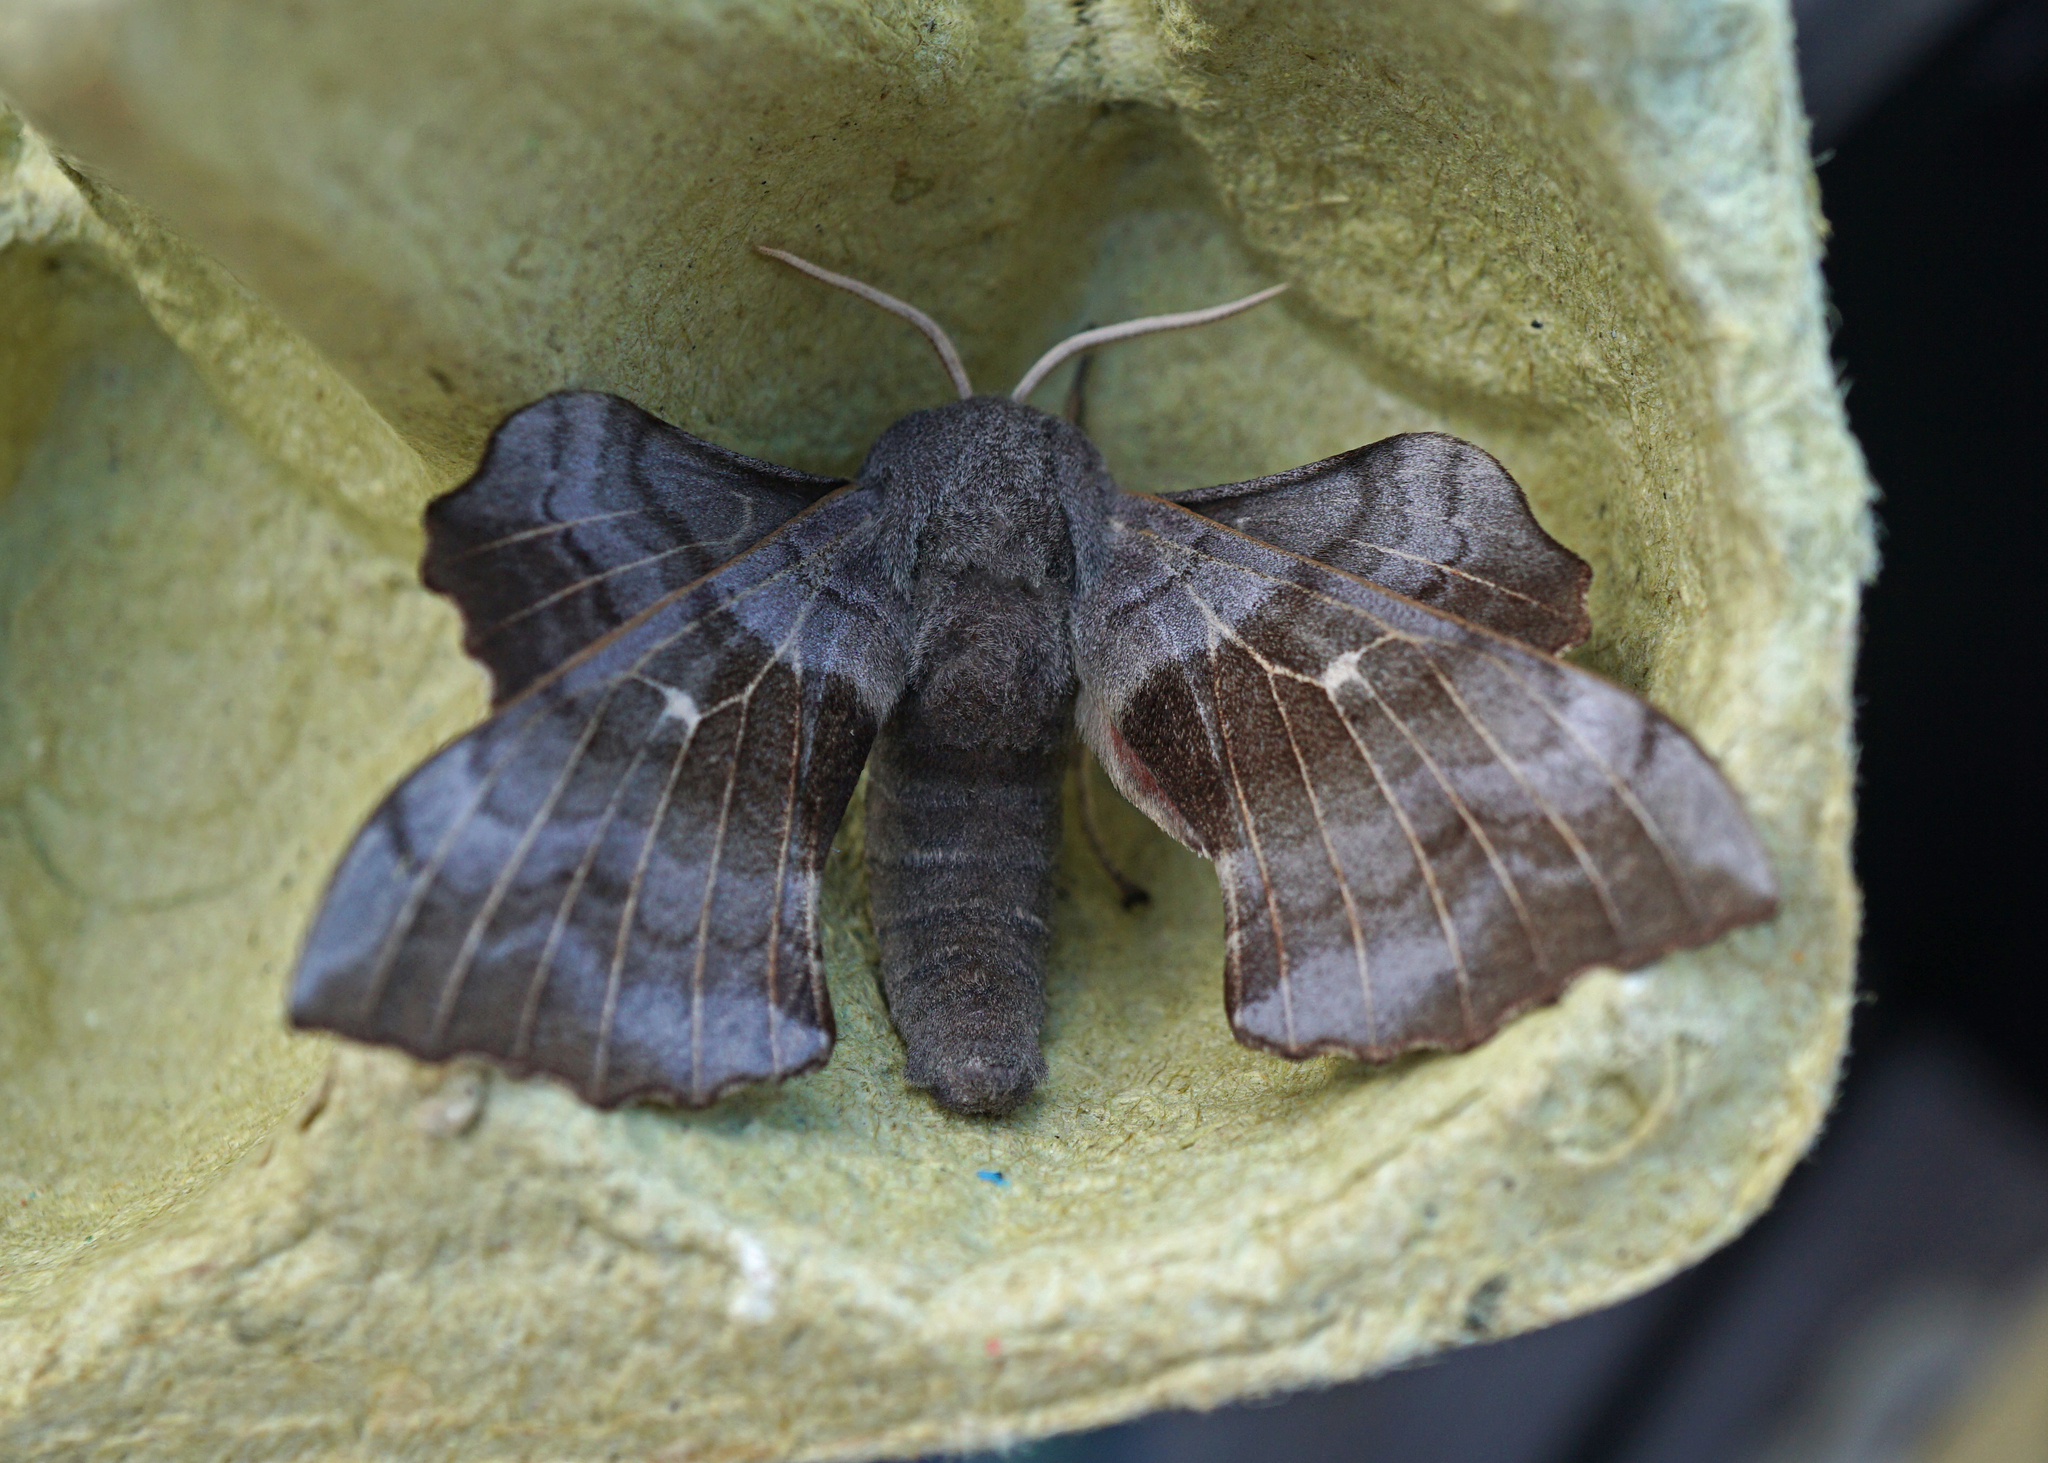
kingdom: Animalia
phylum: Arthropoda
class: Insecta
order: Lepidoptera
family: Sphingidae
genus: Laothoe
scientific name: Laothoe populi
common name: Poplar hawk-moth
